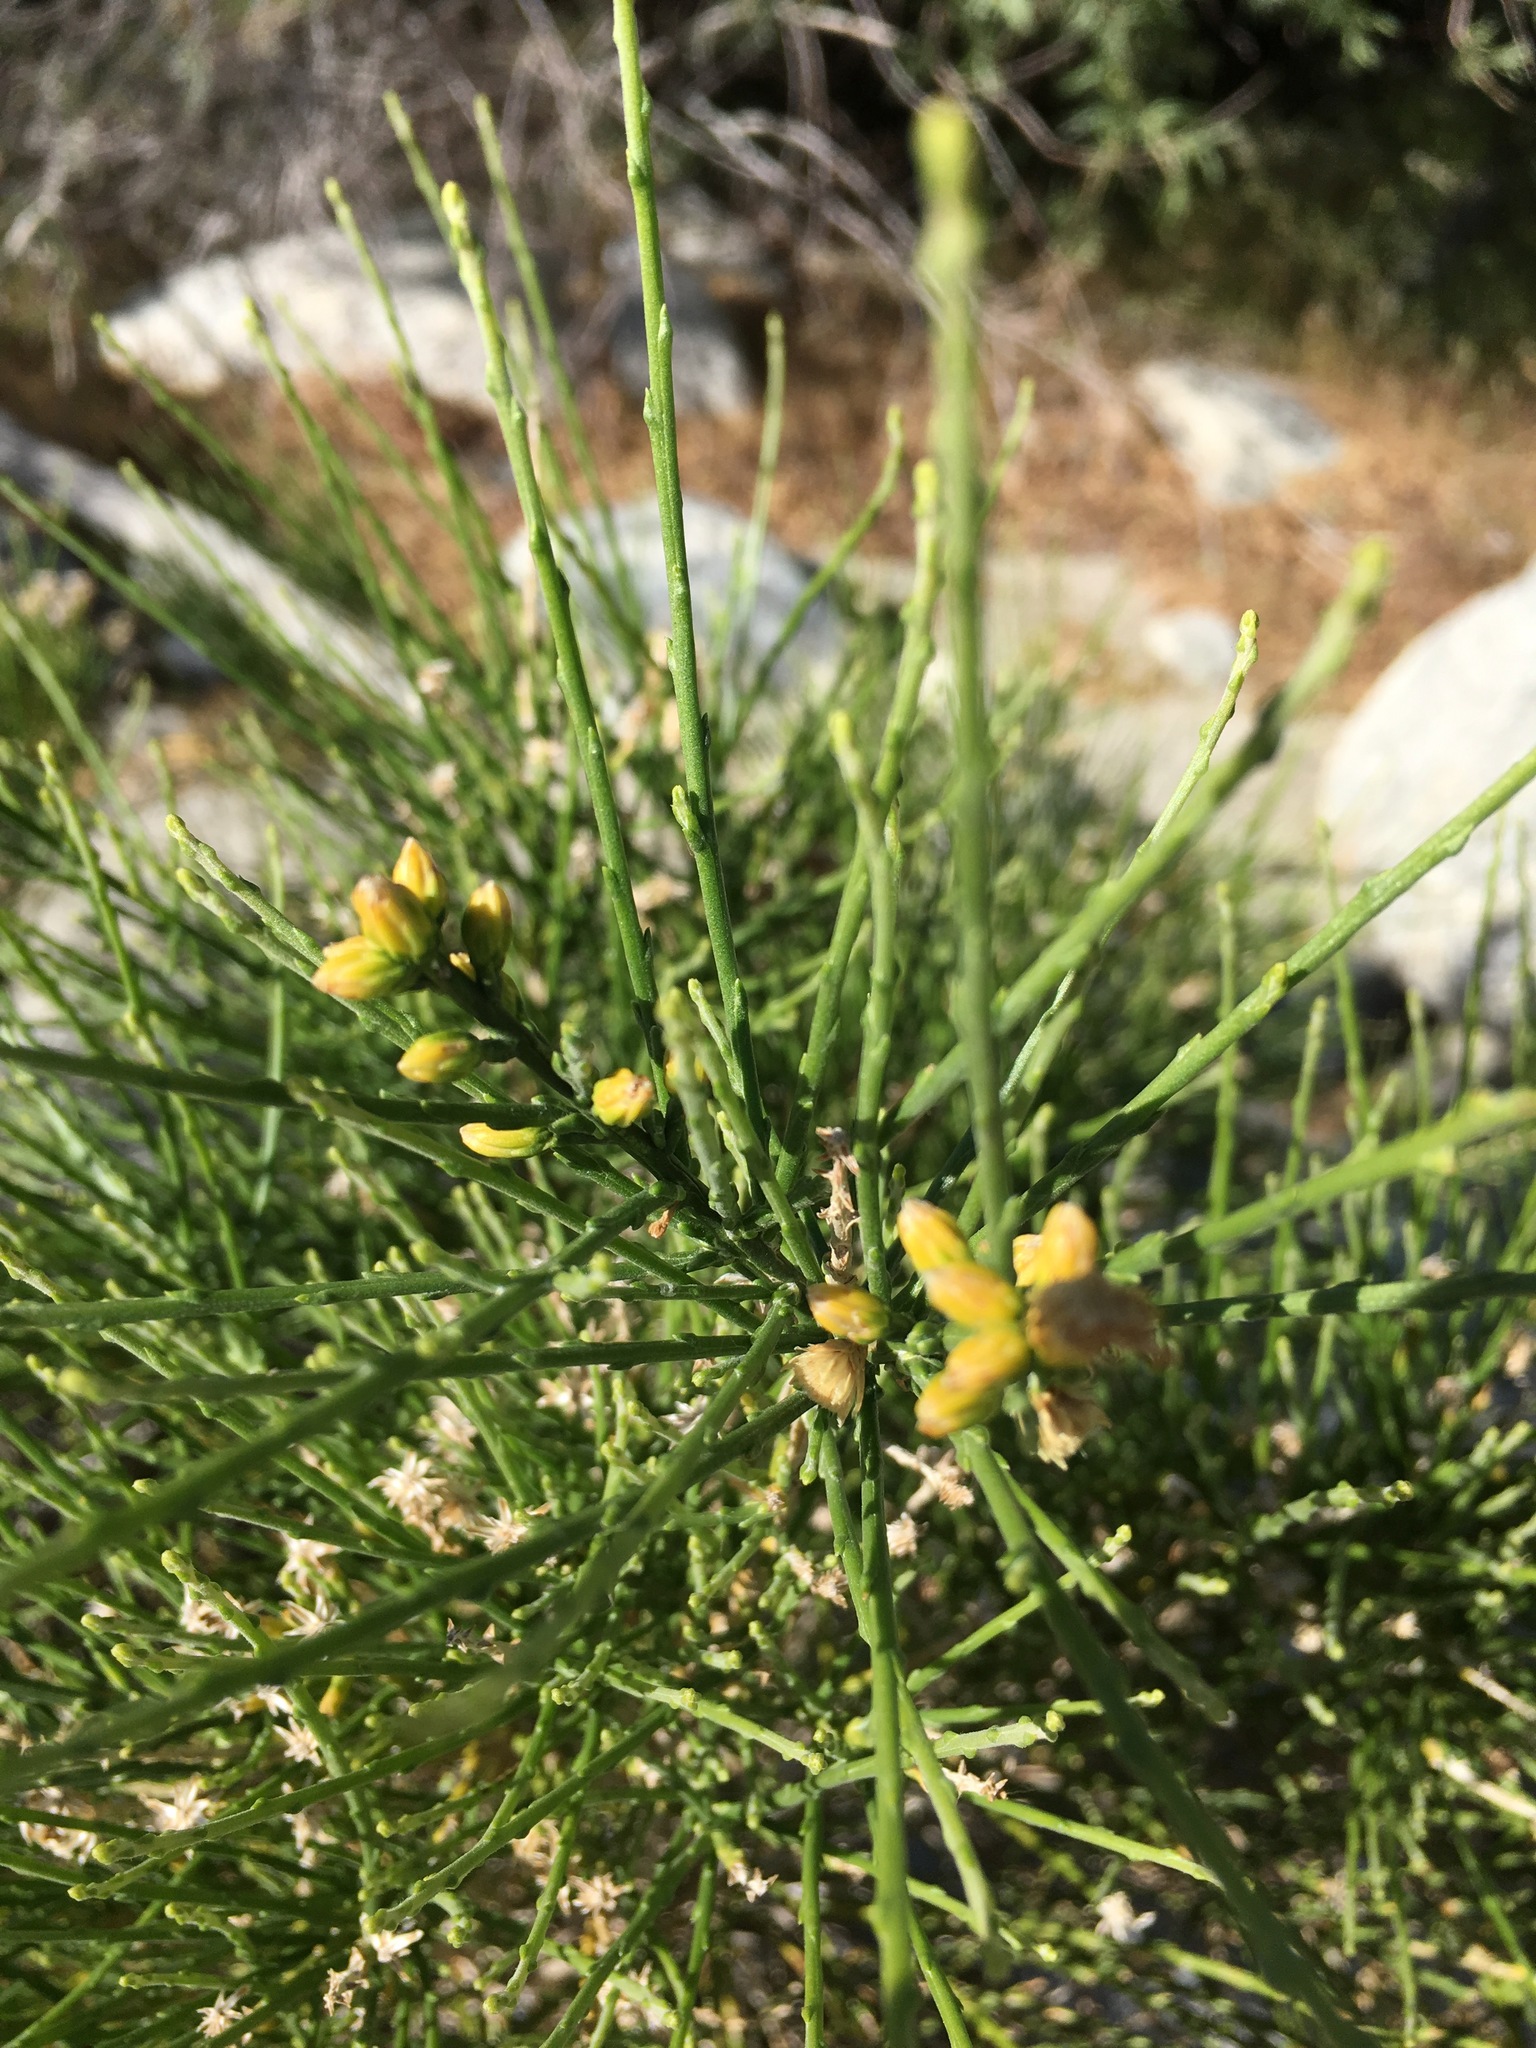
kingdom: Plantae
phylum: Tracheophyta
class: Magnoliopsida
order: Asterales
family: Asteraceae
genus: Lepidospartum
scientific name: Lepidospartum squamatum
